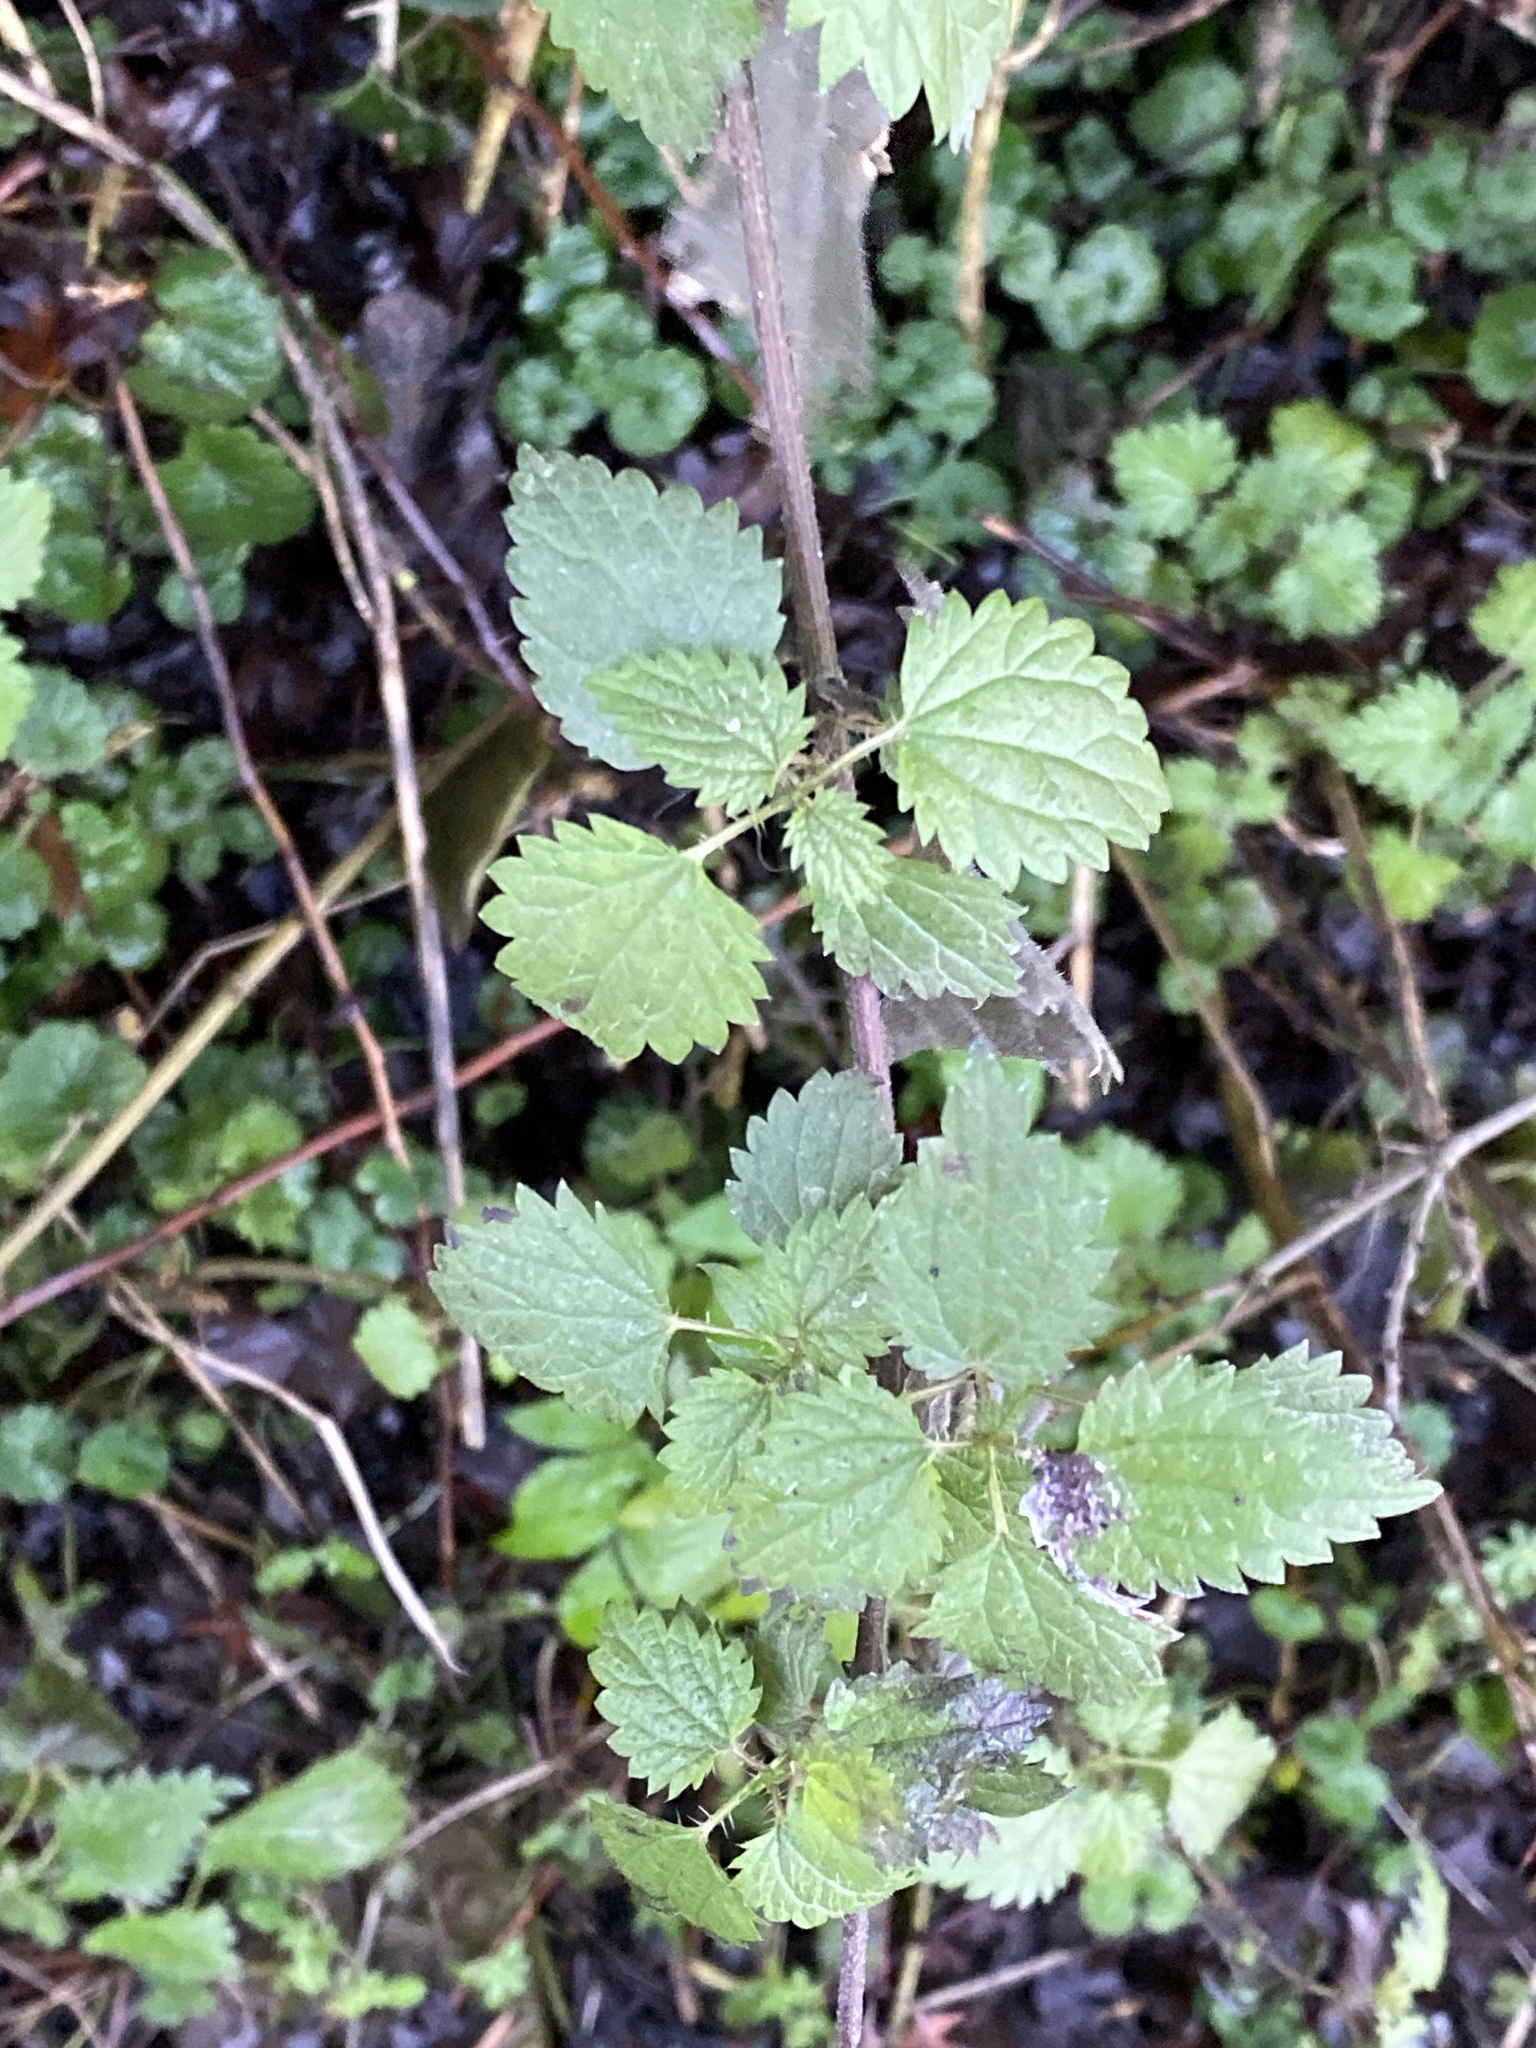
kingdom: Plantae
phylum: Tracheophyta
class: Magnoliopsida
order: Rosales
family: Urticaceae
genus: Urtica
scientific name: Urtica dioica
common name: Common nettle
